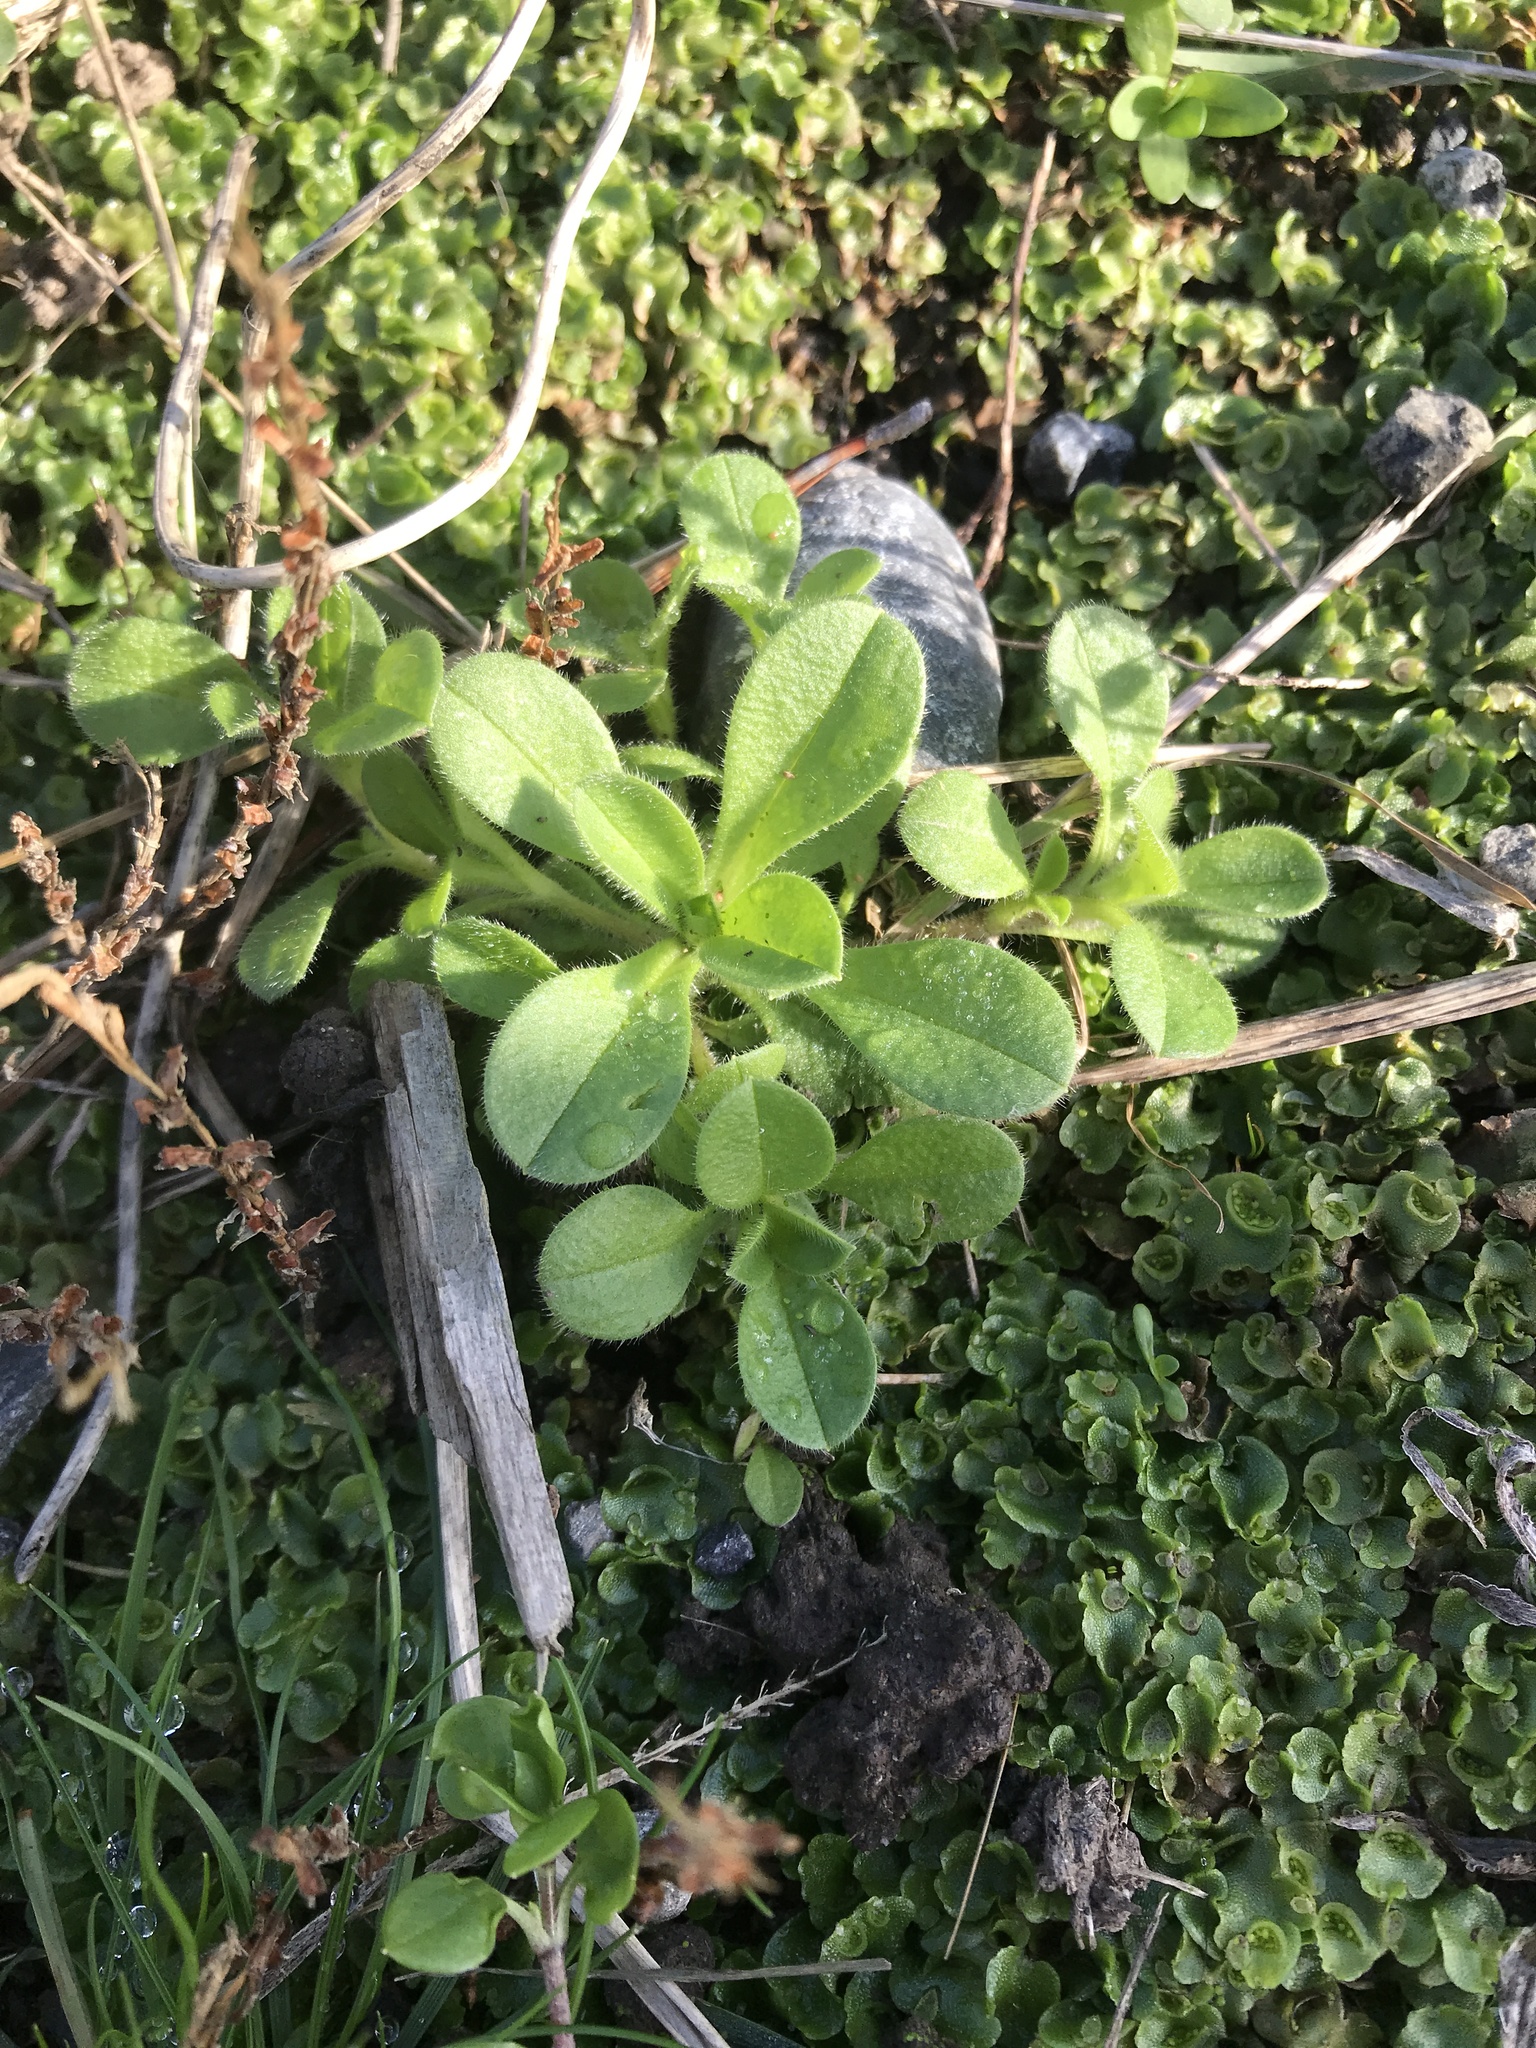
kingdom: Plantae
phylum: Tracheophyta
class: Magnoliopsida
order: Caryophyllales
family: Caryophyllaceae
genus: Cerastium
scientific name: Cerastium fontanum
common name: Common mouse-ear
